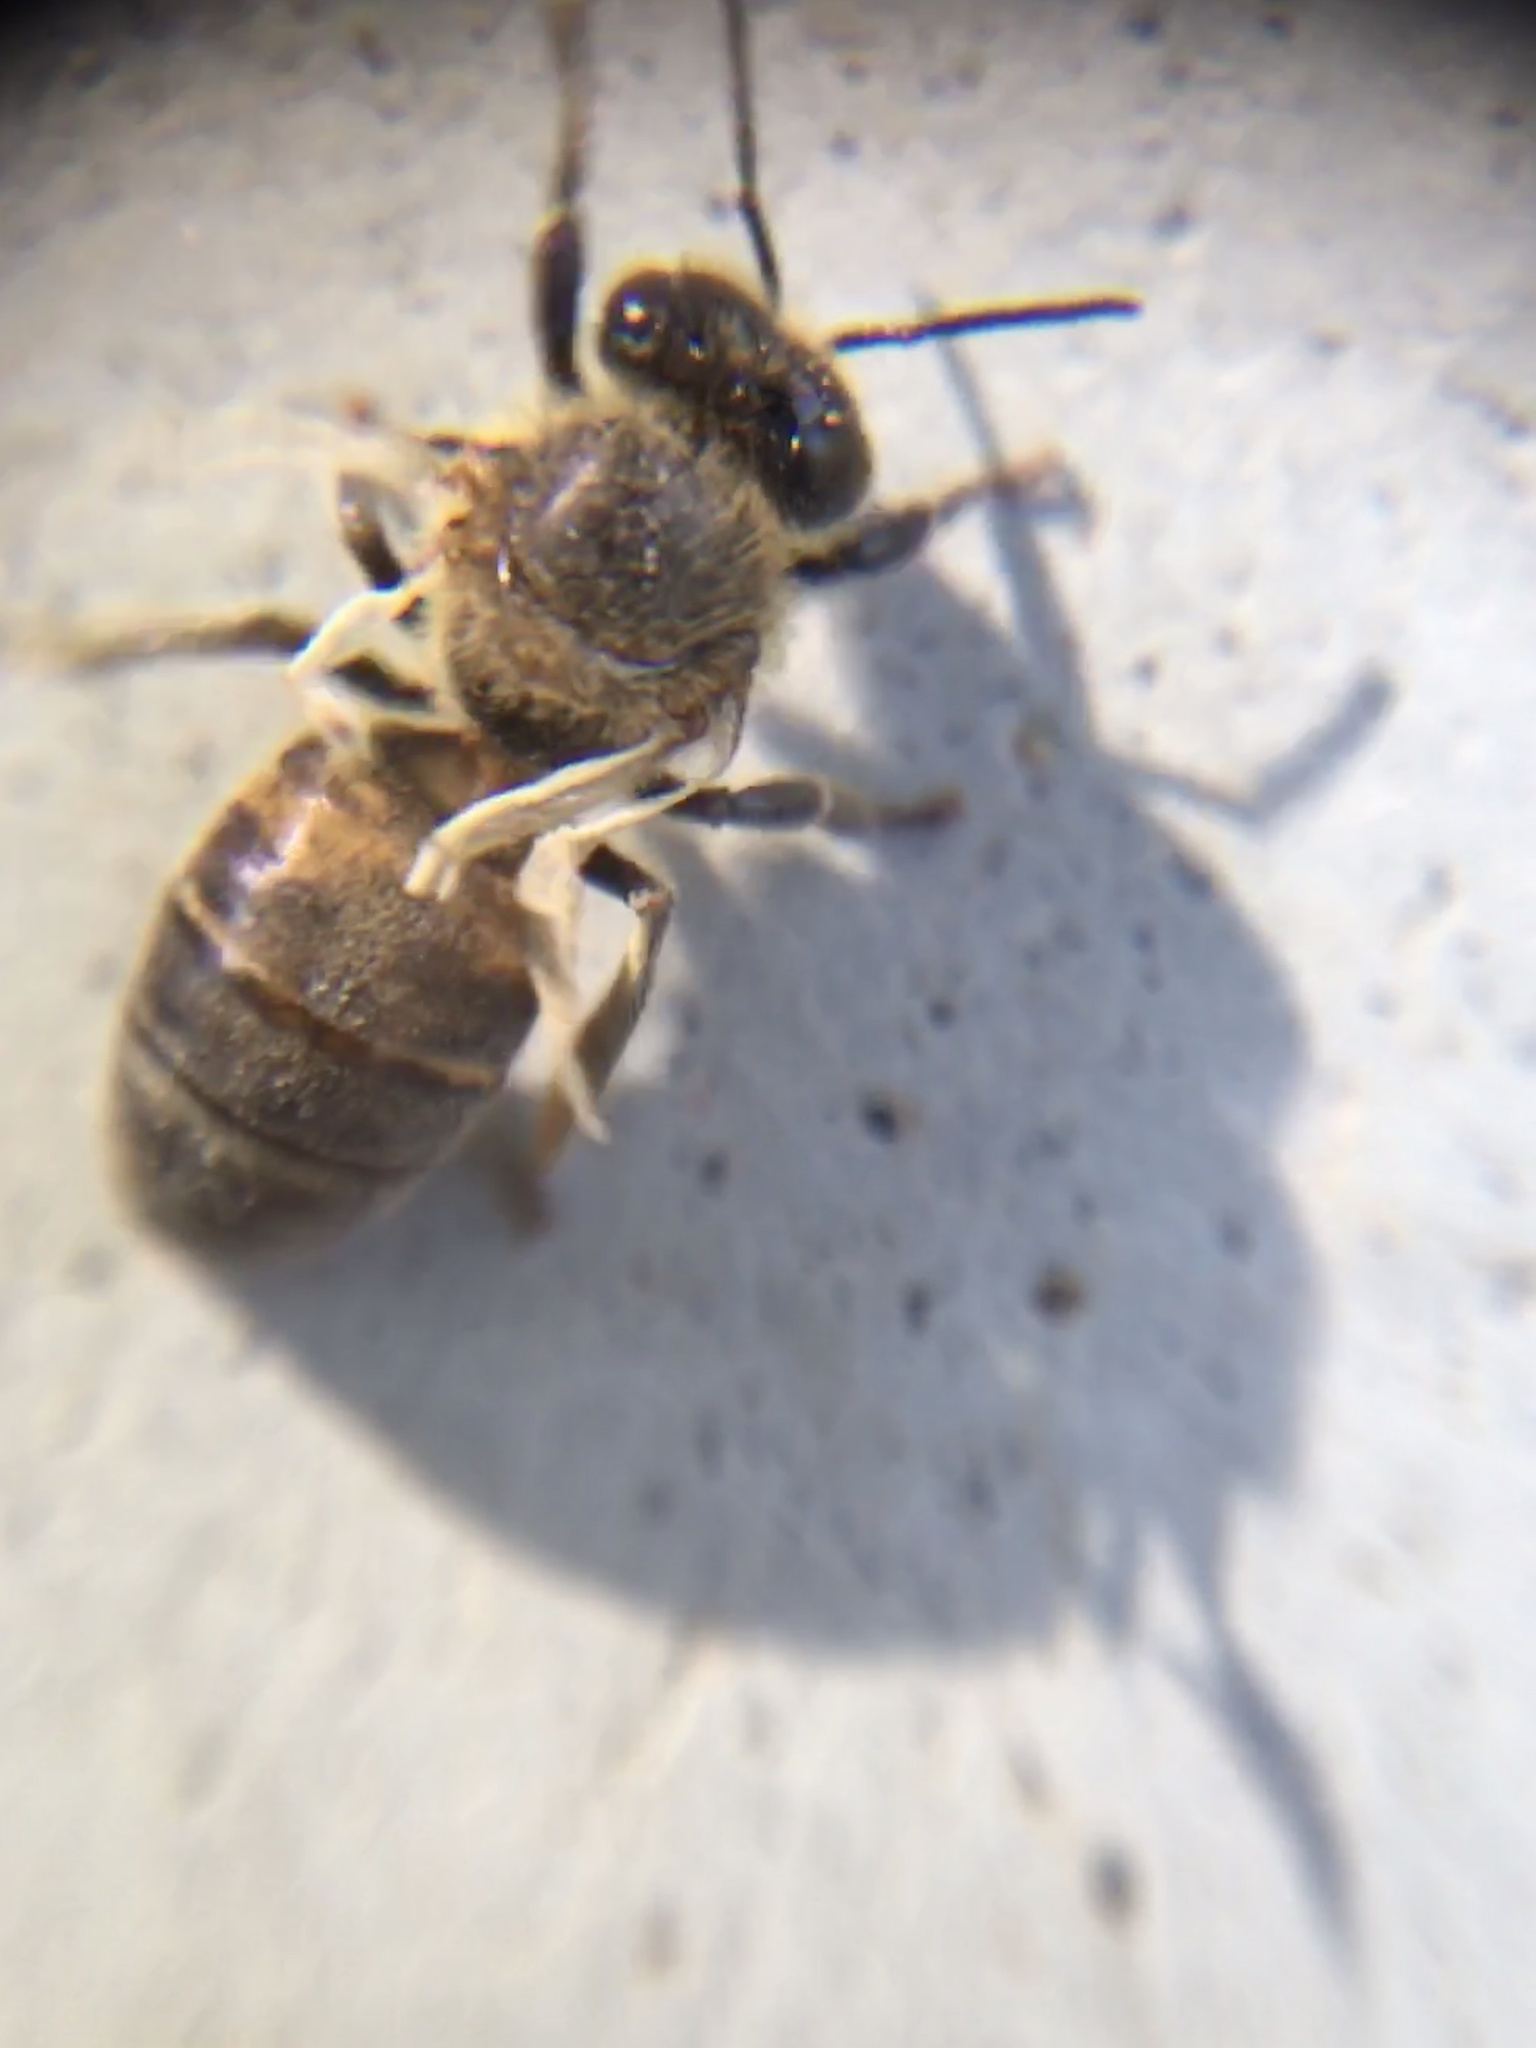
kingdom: Animalia
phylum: Arthropoda
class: Insecta
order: Hymenoptera
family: Apidae
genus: Apis
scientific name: Apis mellifera
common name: Honey bee
